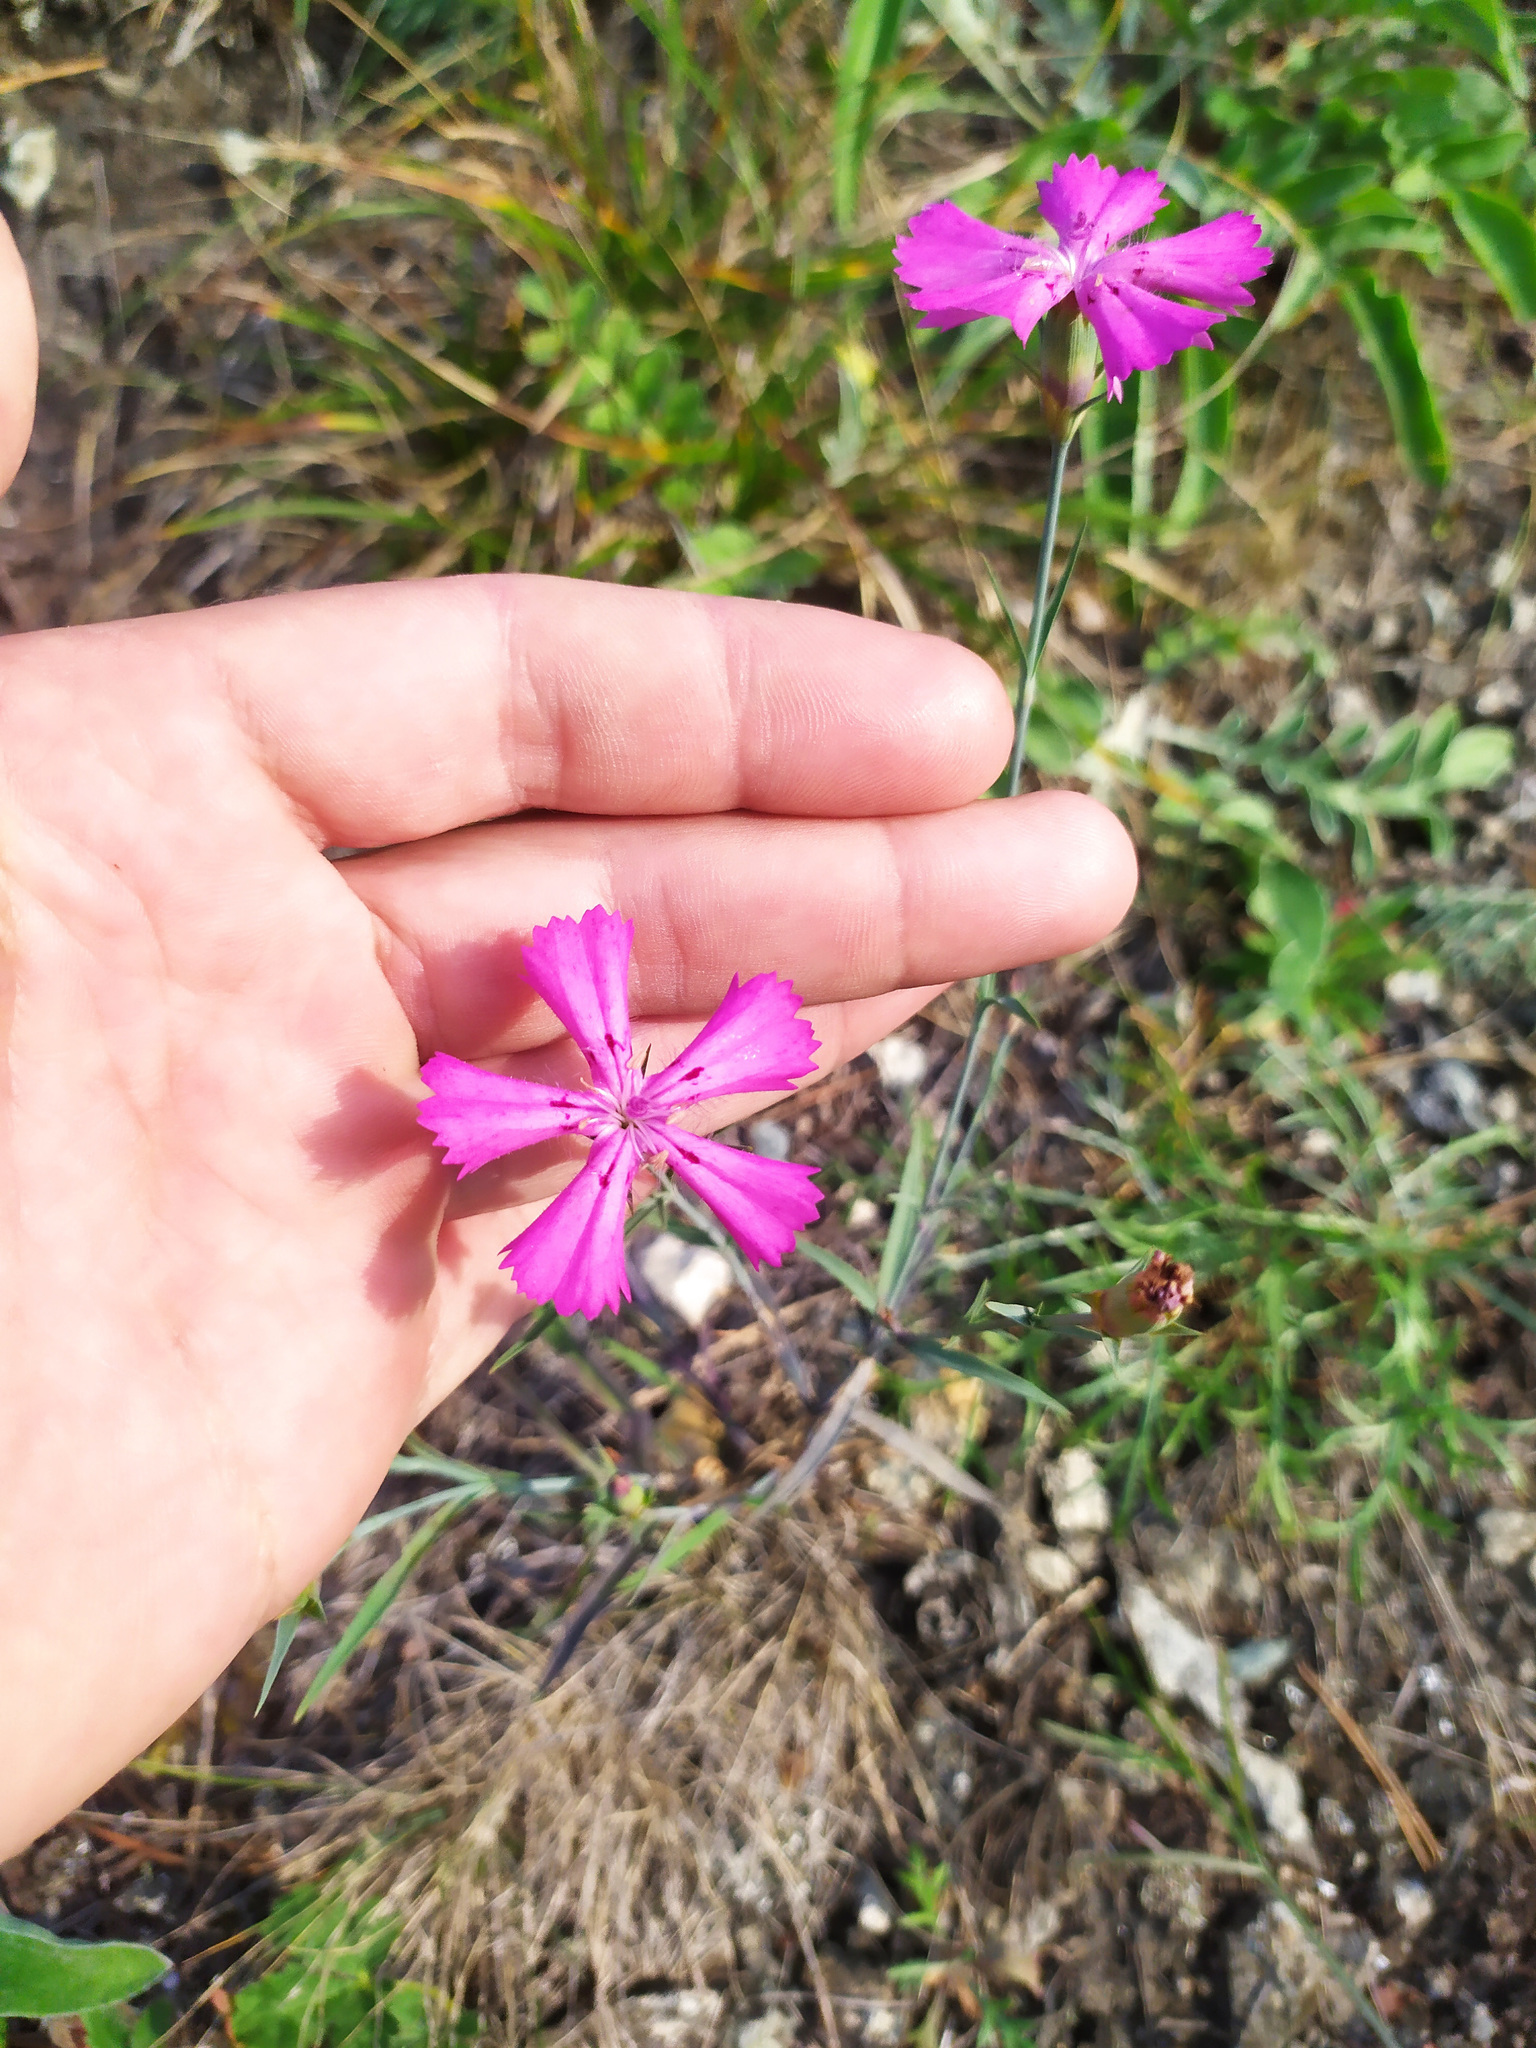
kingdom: Plantae
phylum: Tracheophyta
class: Magnoliopsida
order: Caryophyllales
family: Caryophyllaceae
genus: Dianthus
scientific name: Dianthus chinensis
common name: Rainbow pink
